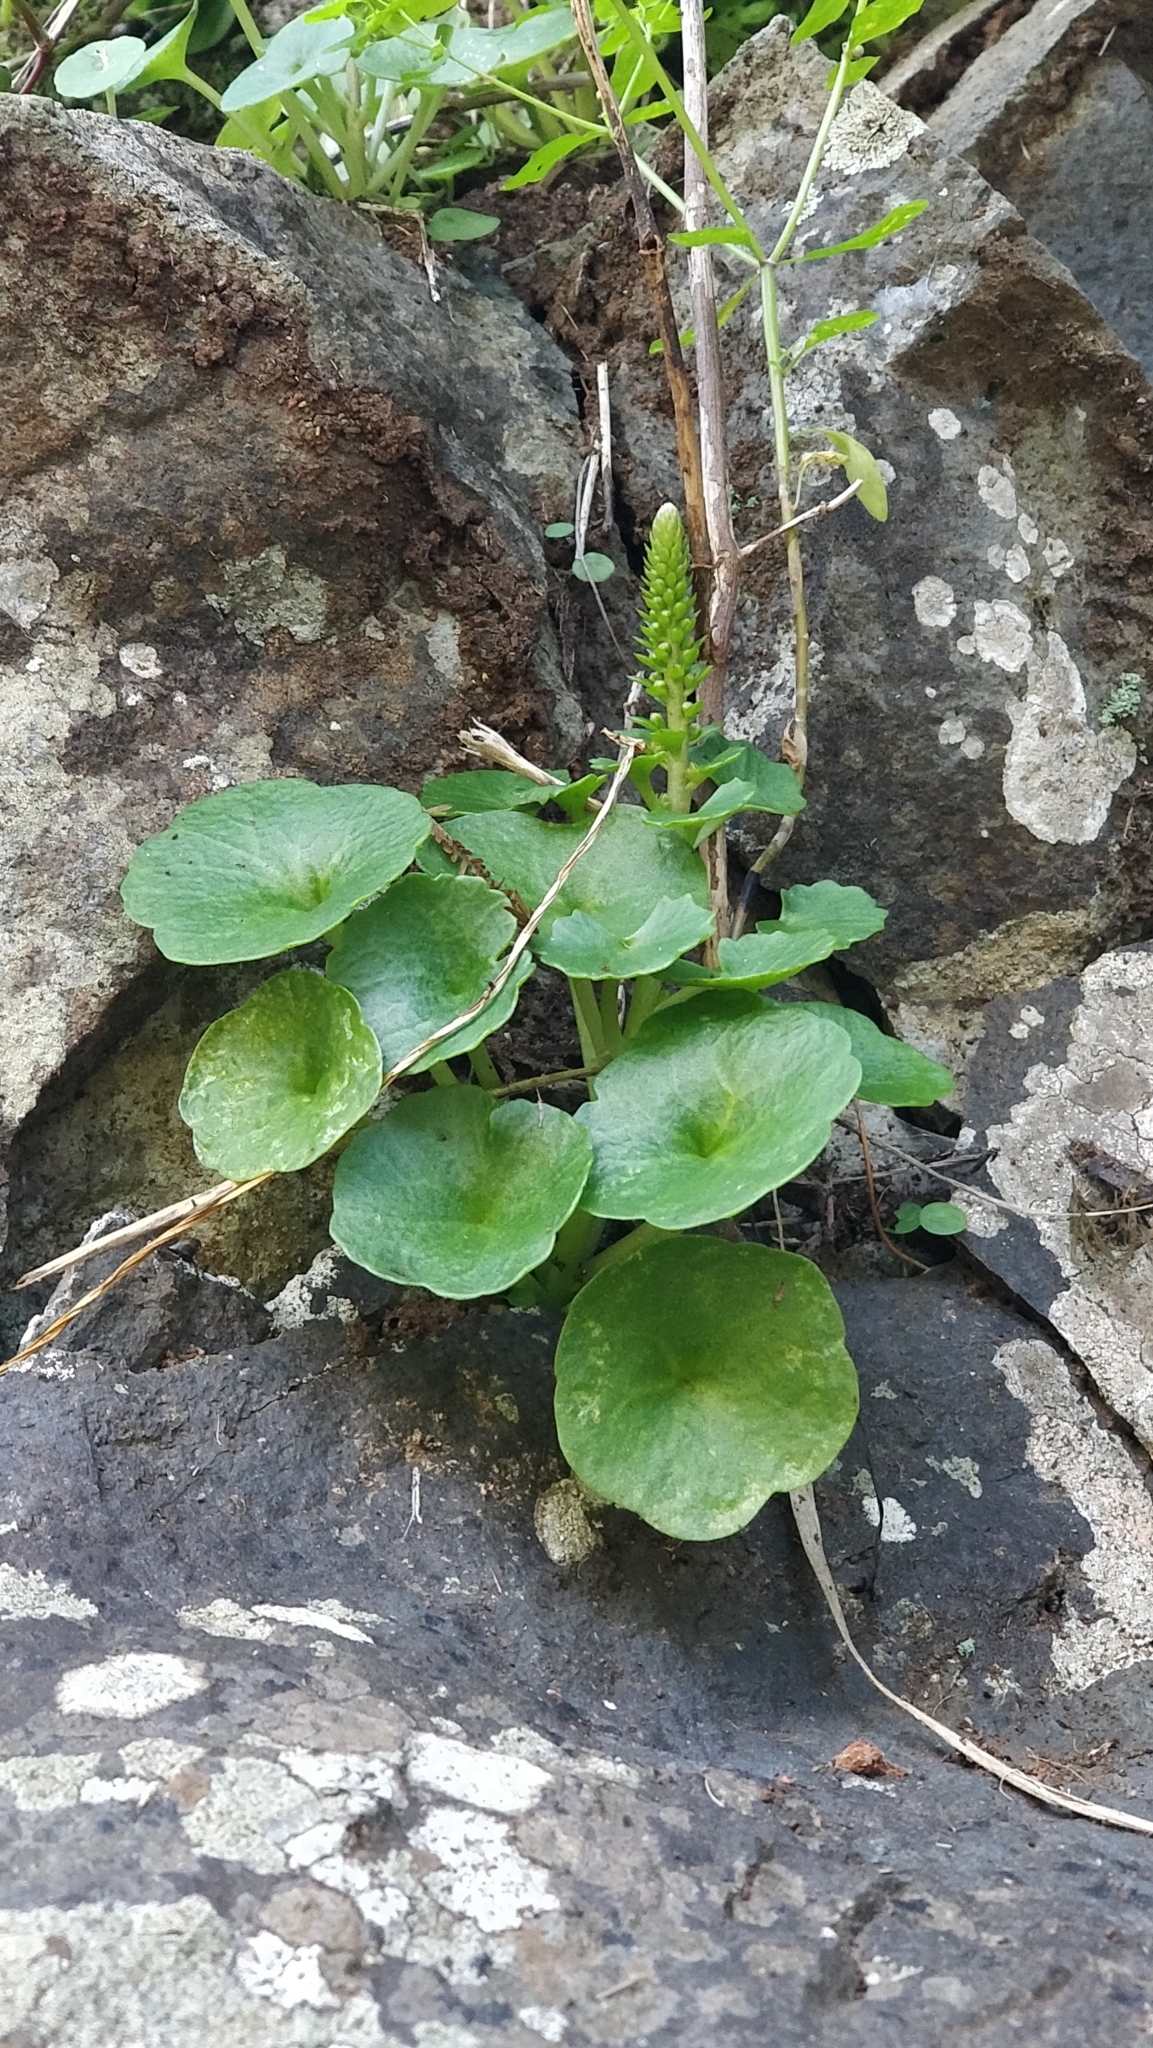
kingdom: Plantae
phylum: Tracheophyta
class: Magnoliopsida
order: Saxifragales
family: Crassulaceae
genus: Umbilicus
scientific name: Umbilicus rupestris
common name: Navelwort
